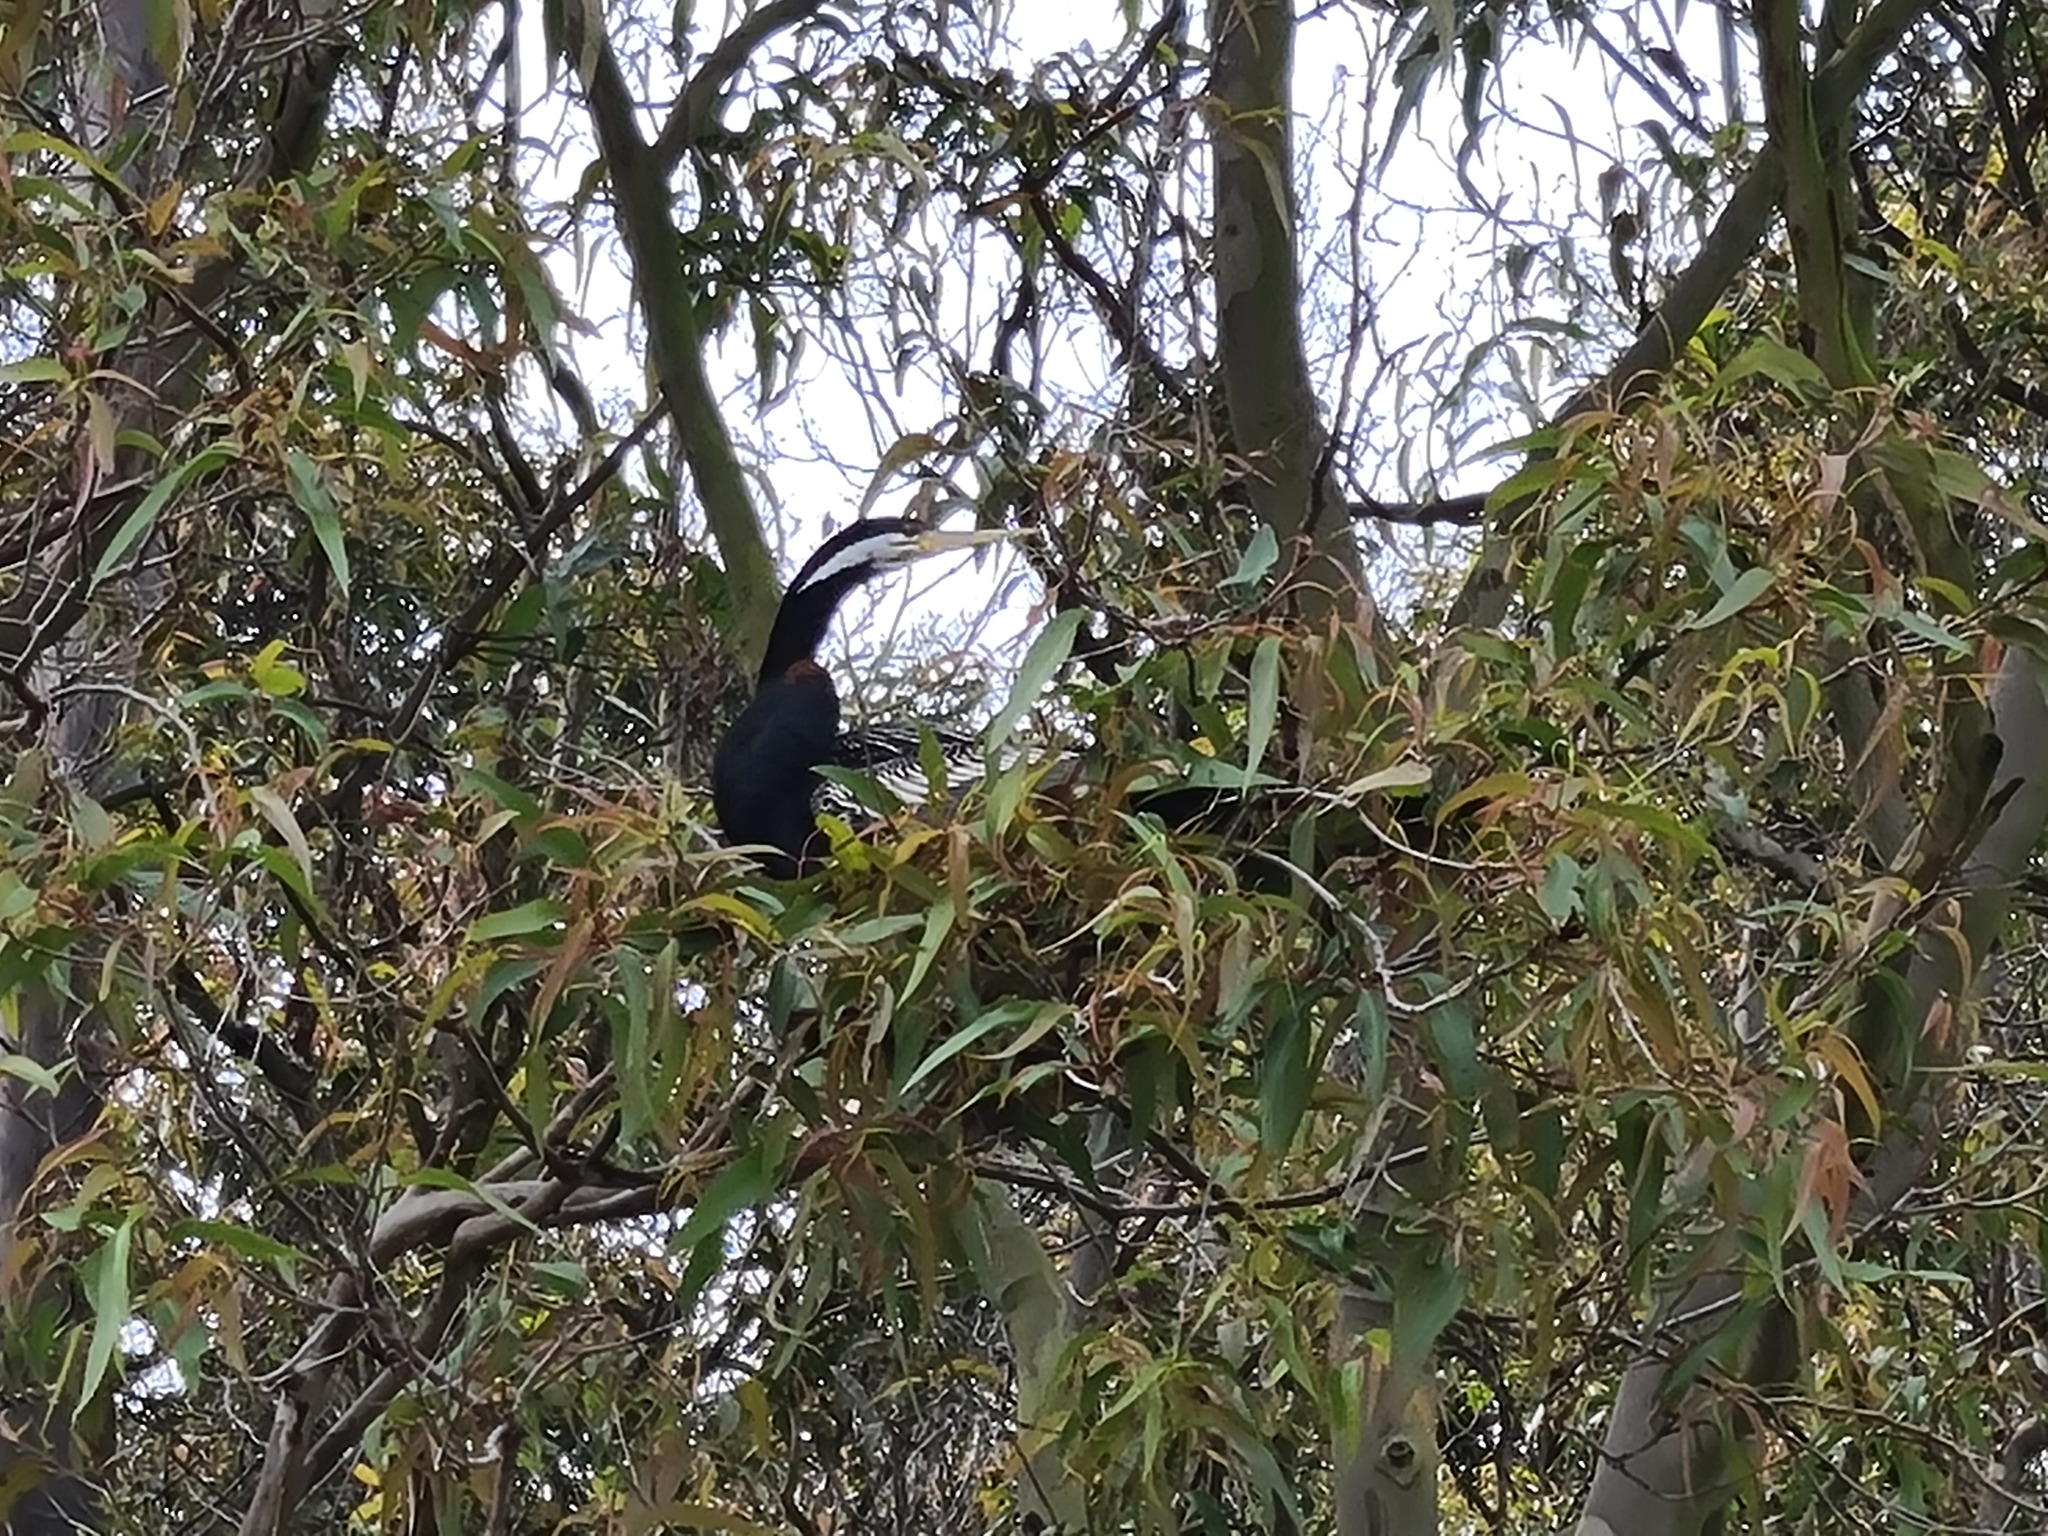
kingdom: Animalia
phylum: Chordata
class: Aves
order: Suliformes
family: Anhingidae
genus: Anhinga
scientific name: Anhinga novaehollandiae
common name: Australasian darter
